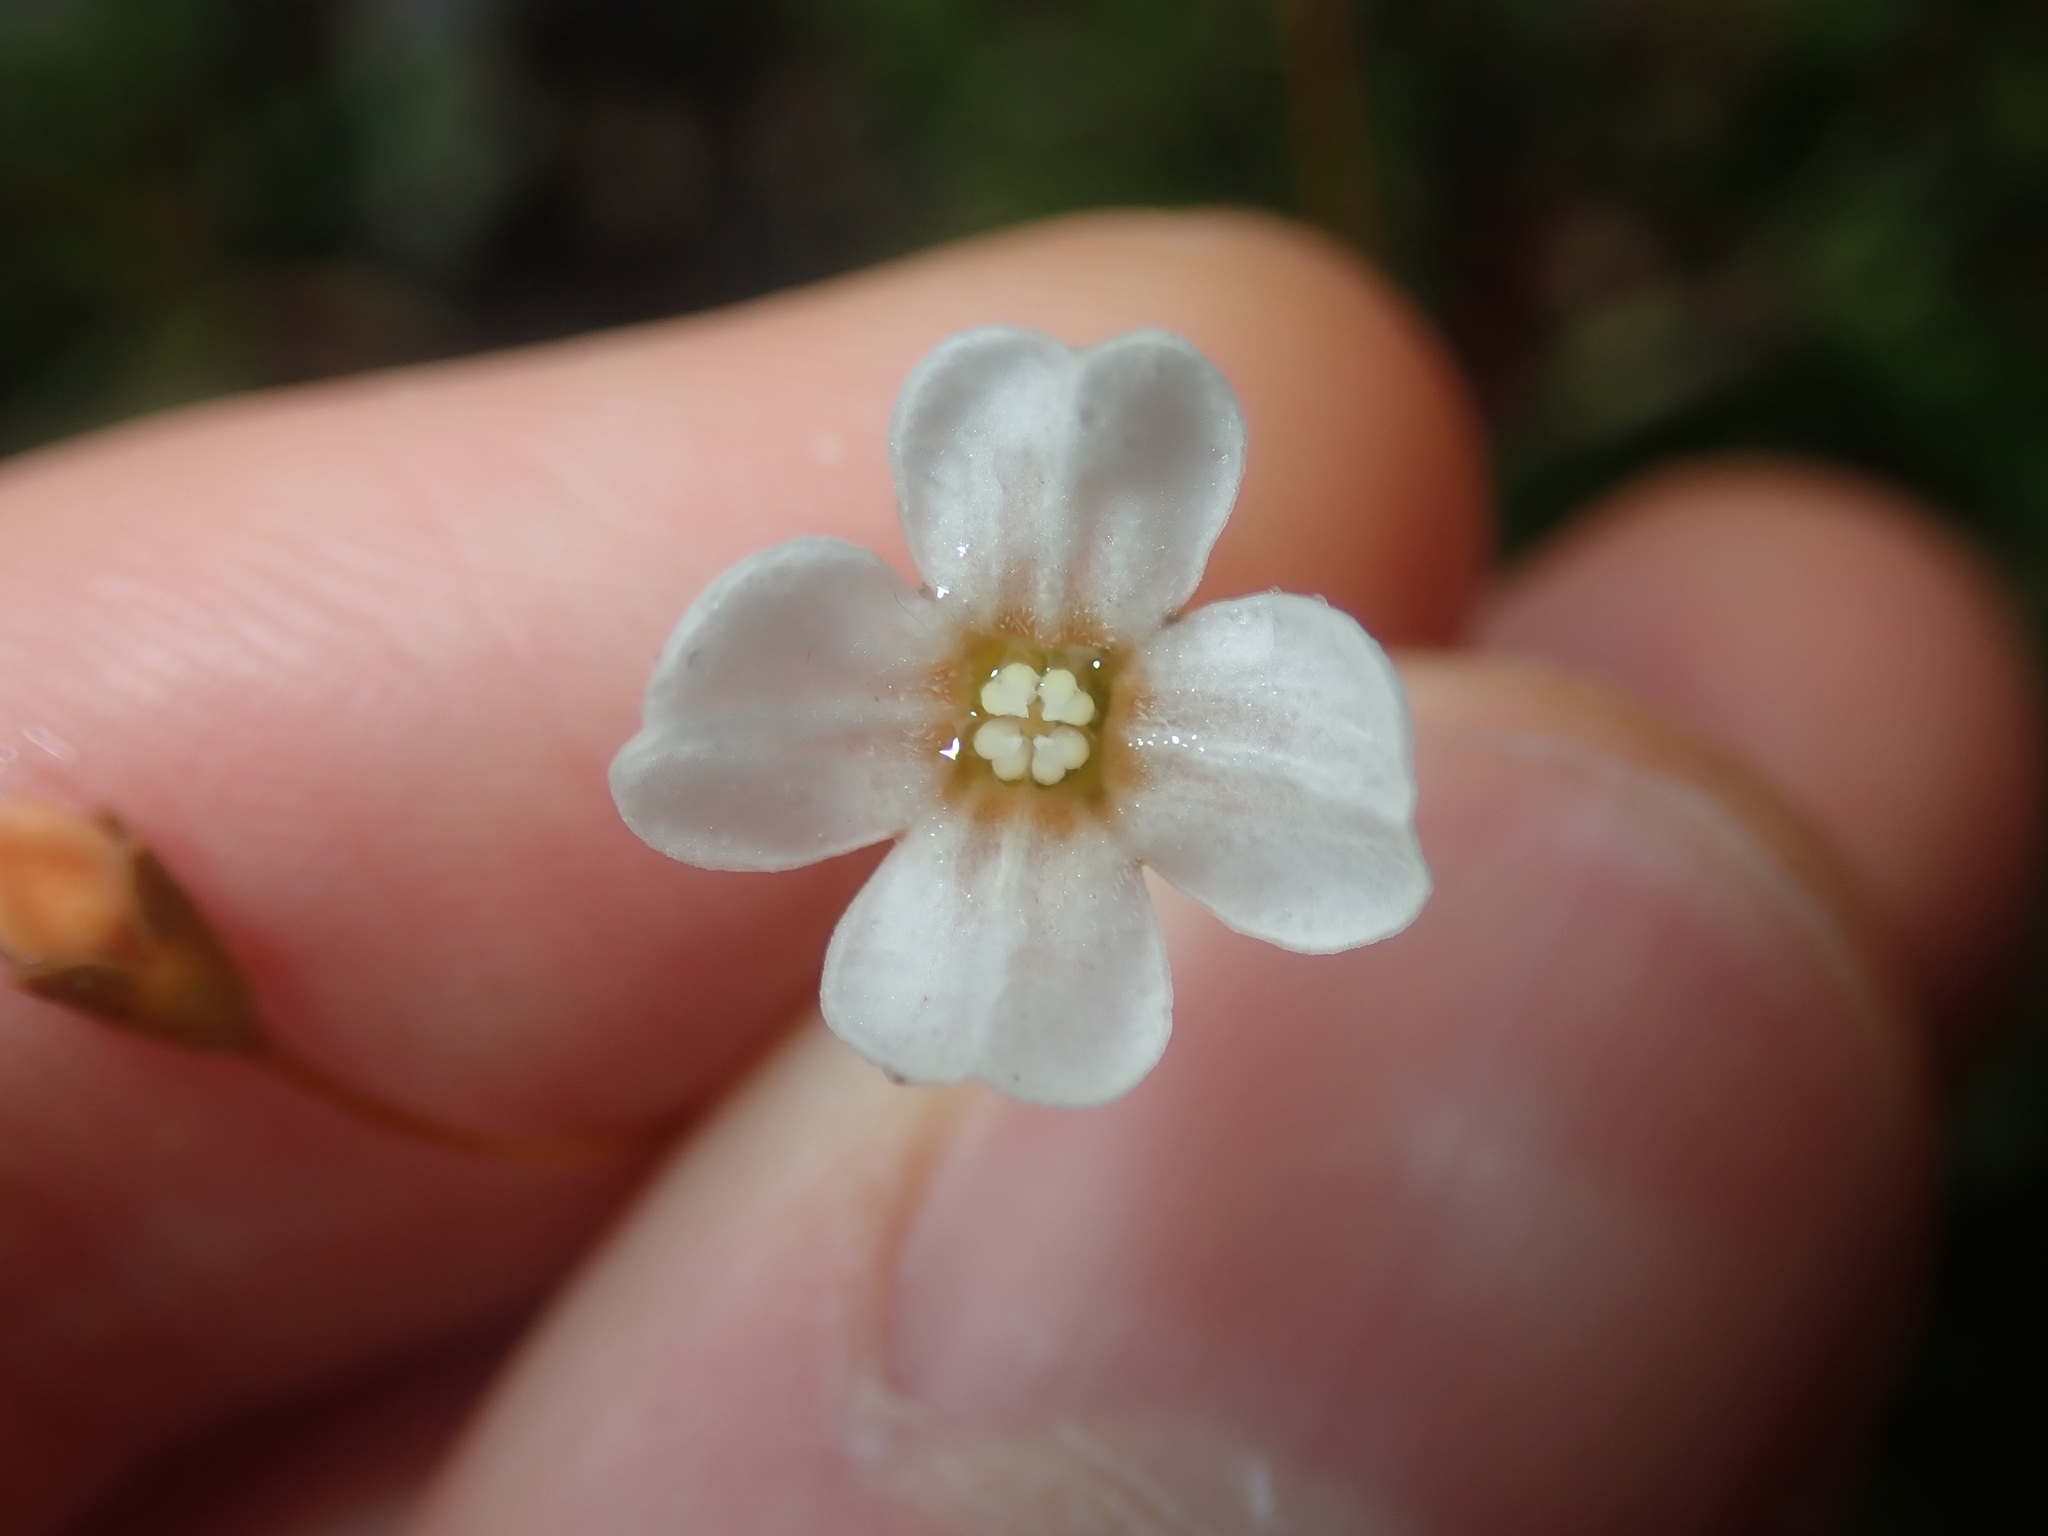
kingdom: Plantae
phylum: Tracheophyta
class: Magnoliopsida
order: Gentianales
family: Loganiaceae
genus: Mitrasacme
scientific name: Mitrasacme polymorpha
